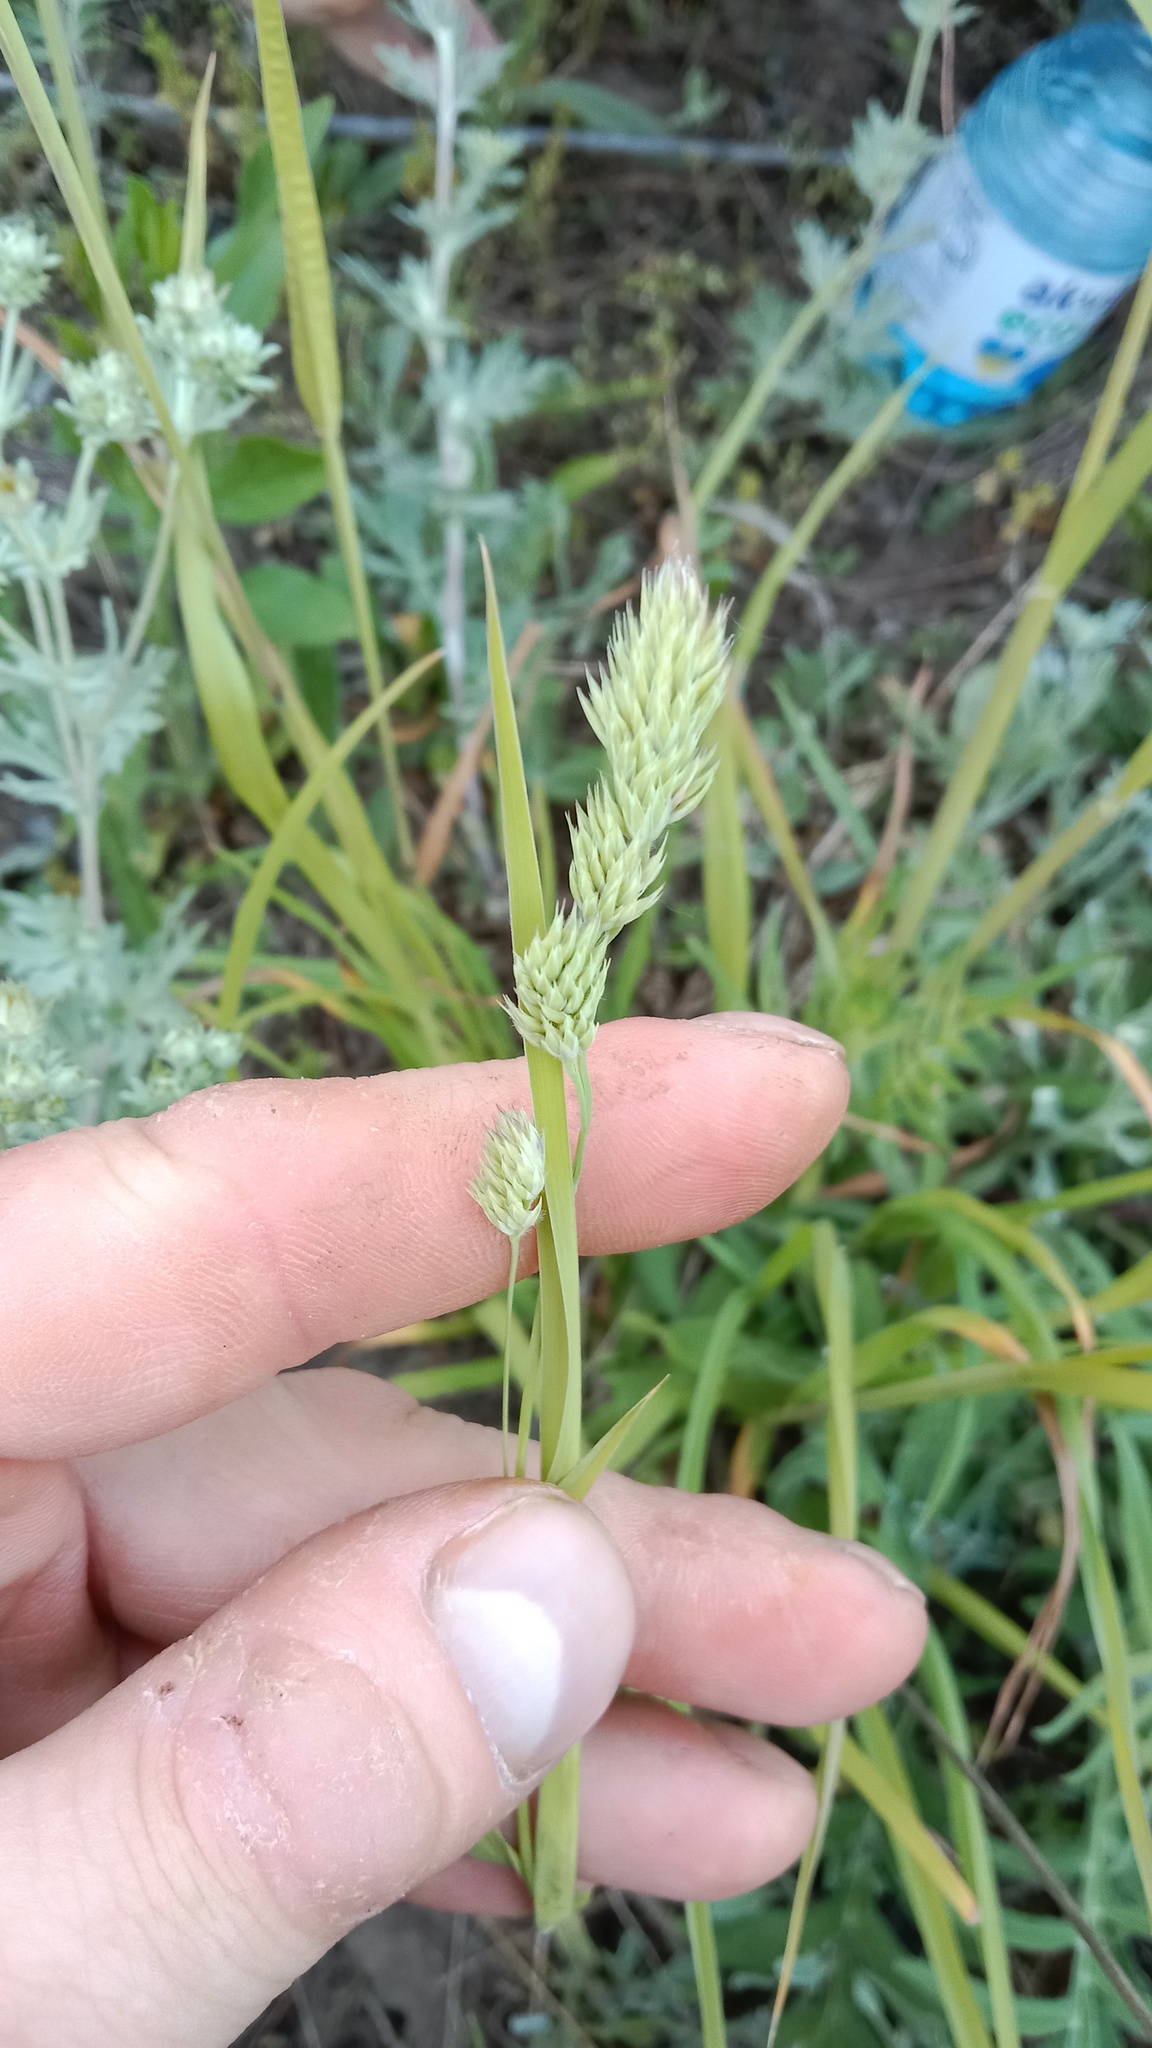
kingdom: Plantae
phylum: Tracheophyta
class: Liliopsida
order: Poales
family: Poaceae
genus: Dactylis
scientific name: Dactylis glomerata
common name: Orchardgrass
